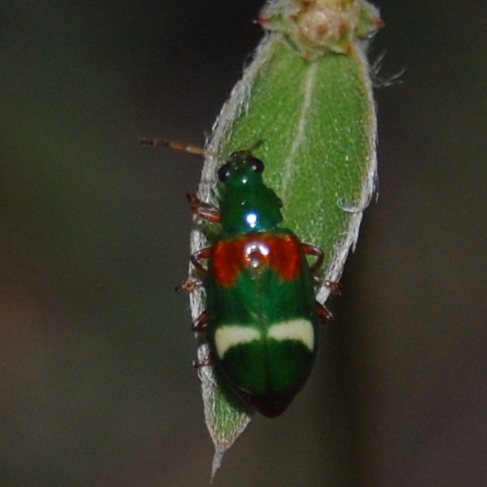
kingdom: Animalia
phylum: Arthropoda
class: Insecta
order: Coleoptera
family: Chrysomelidae
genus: Charidotella
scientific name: Charidotella amoenula
